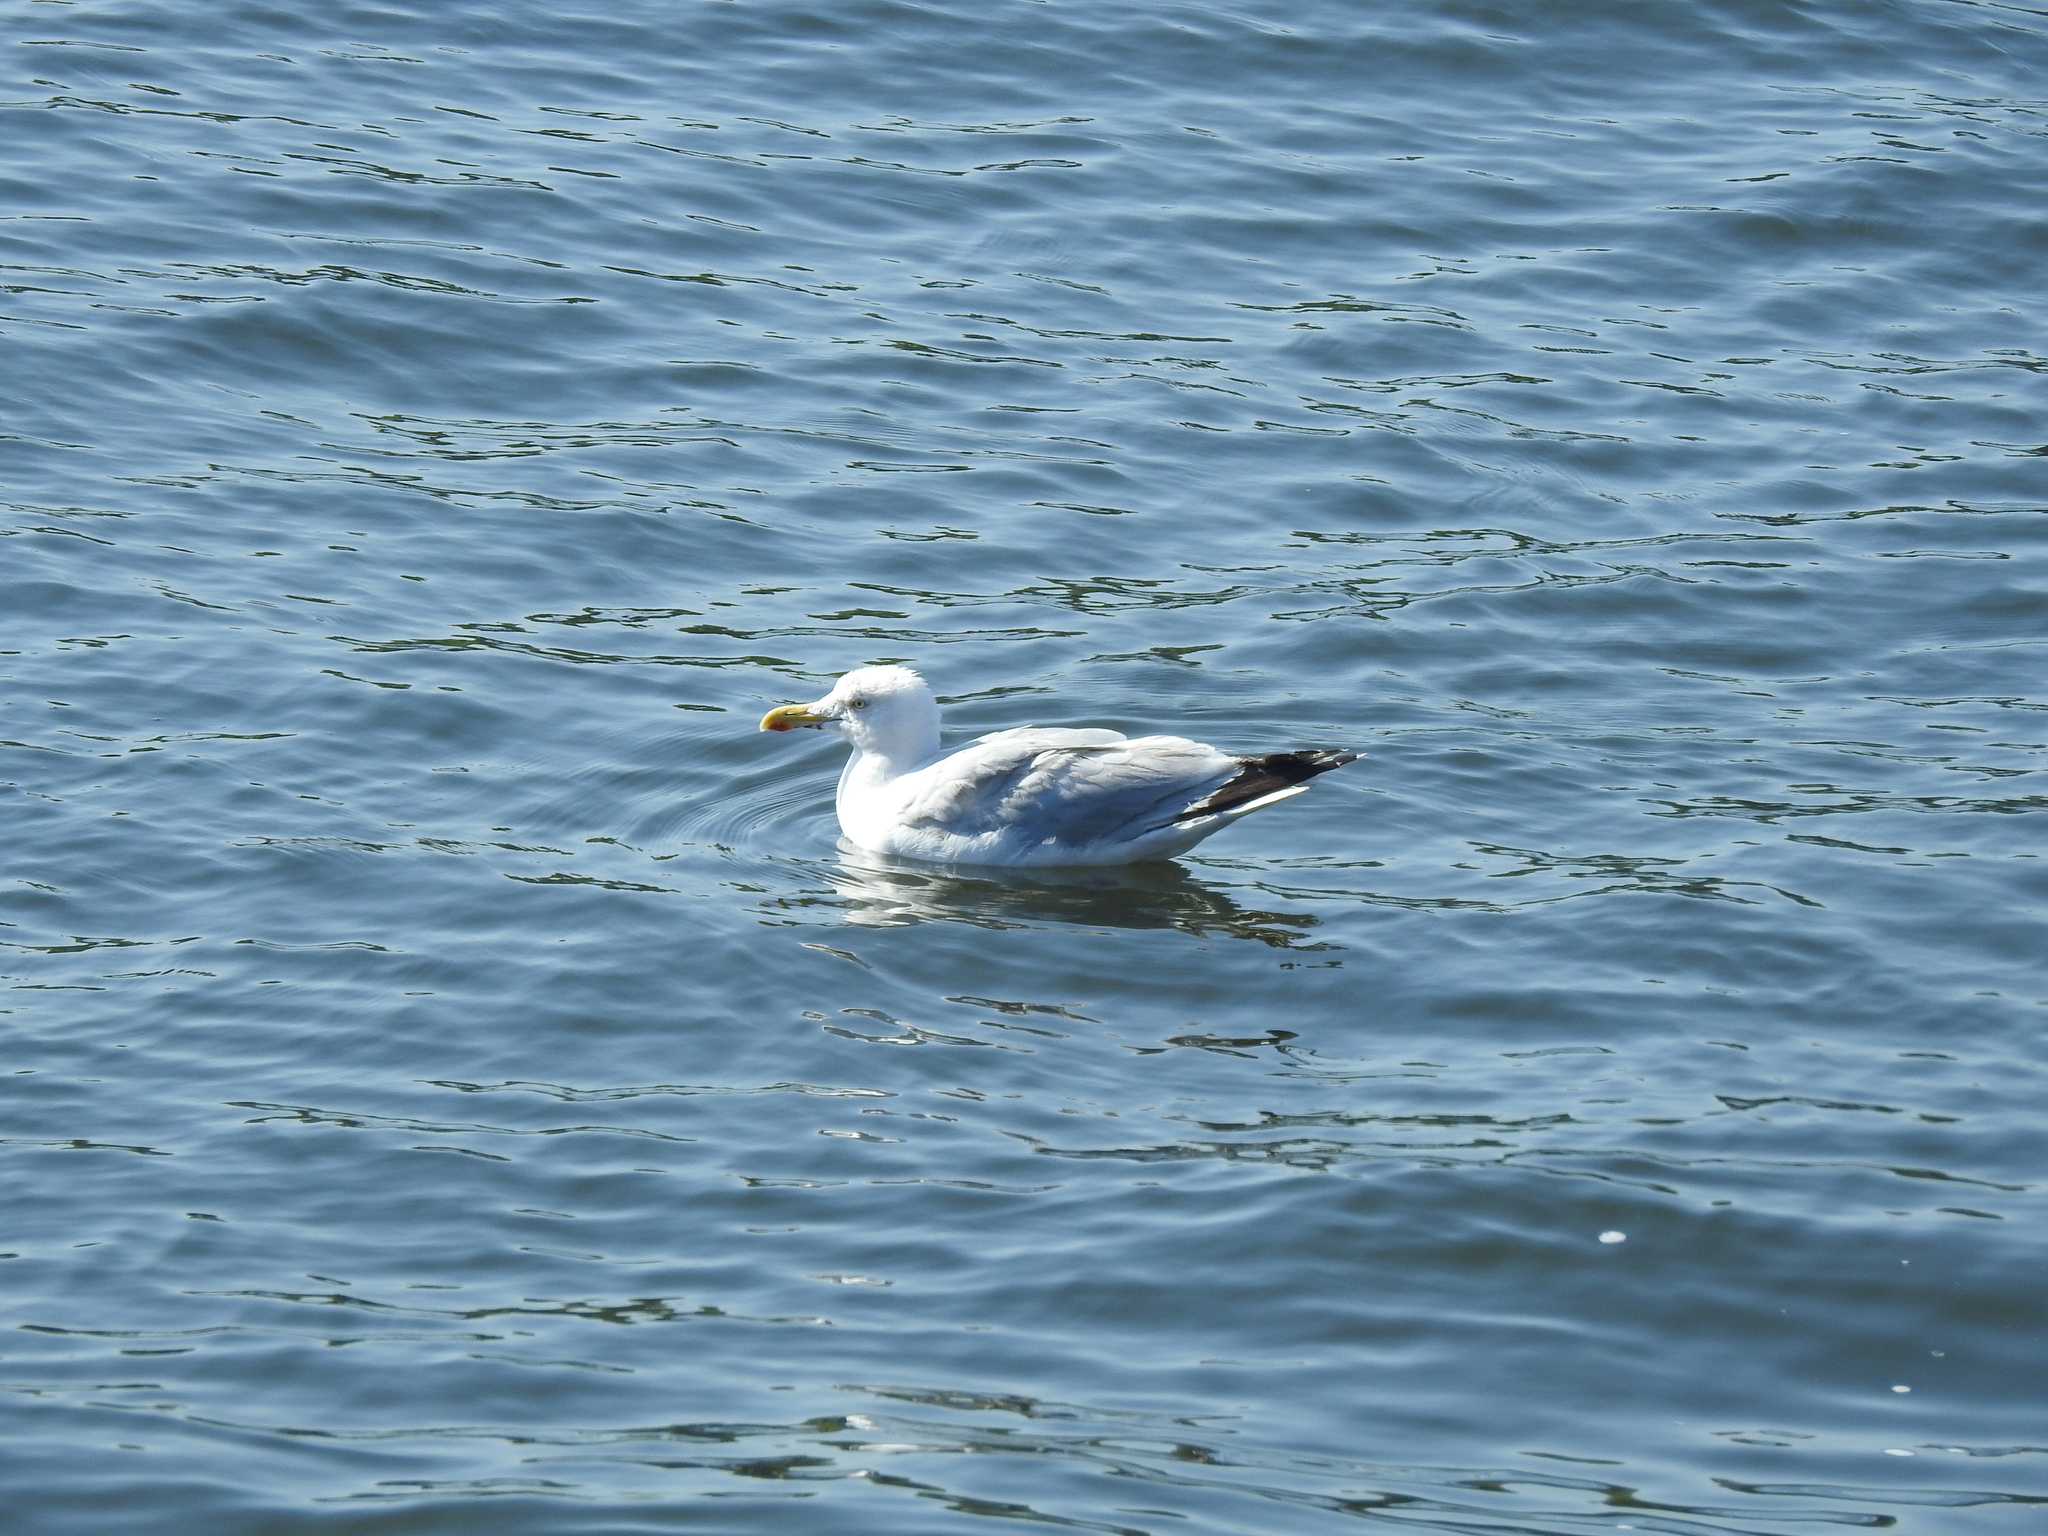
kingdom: Animalia
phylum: Chordata
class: Aves
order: Charadriiformes
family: Laridae
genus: Larus
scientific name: Larus argentatus
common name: Herring gull
